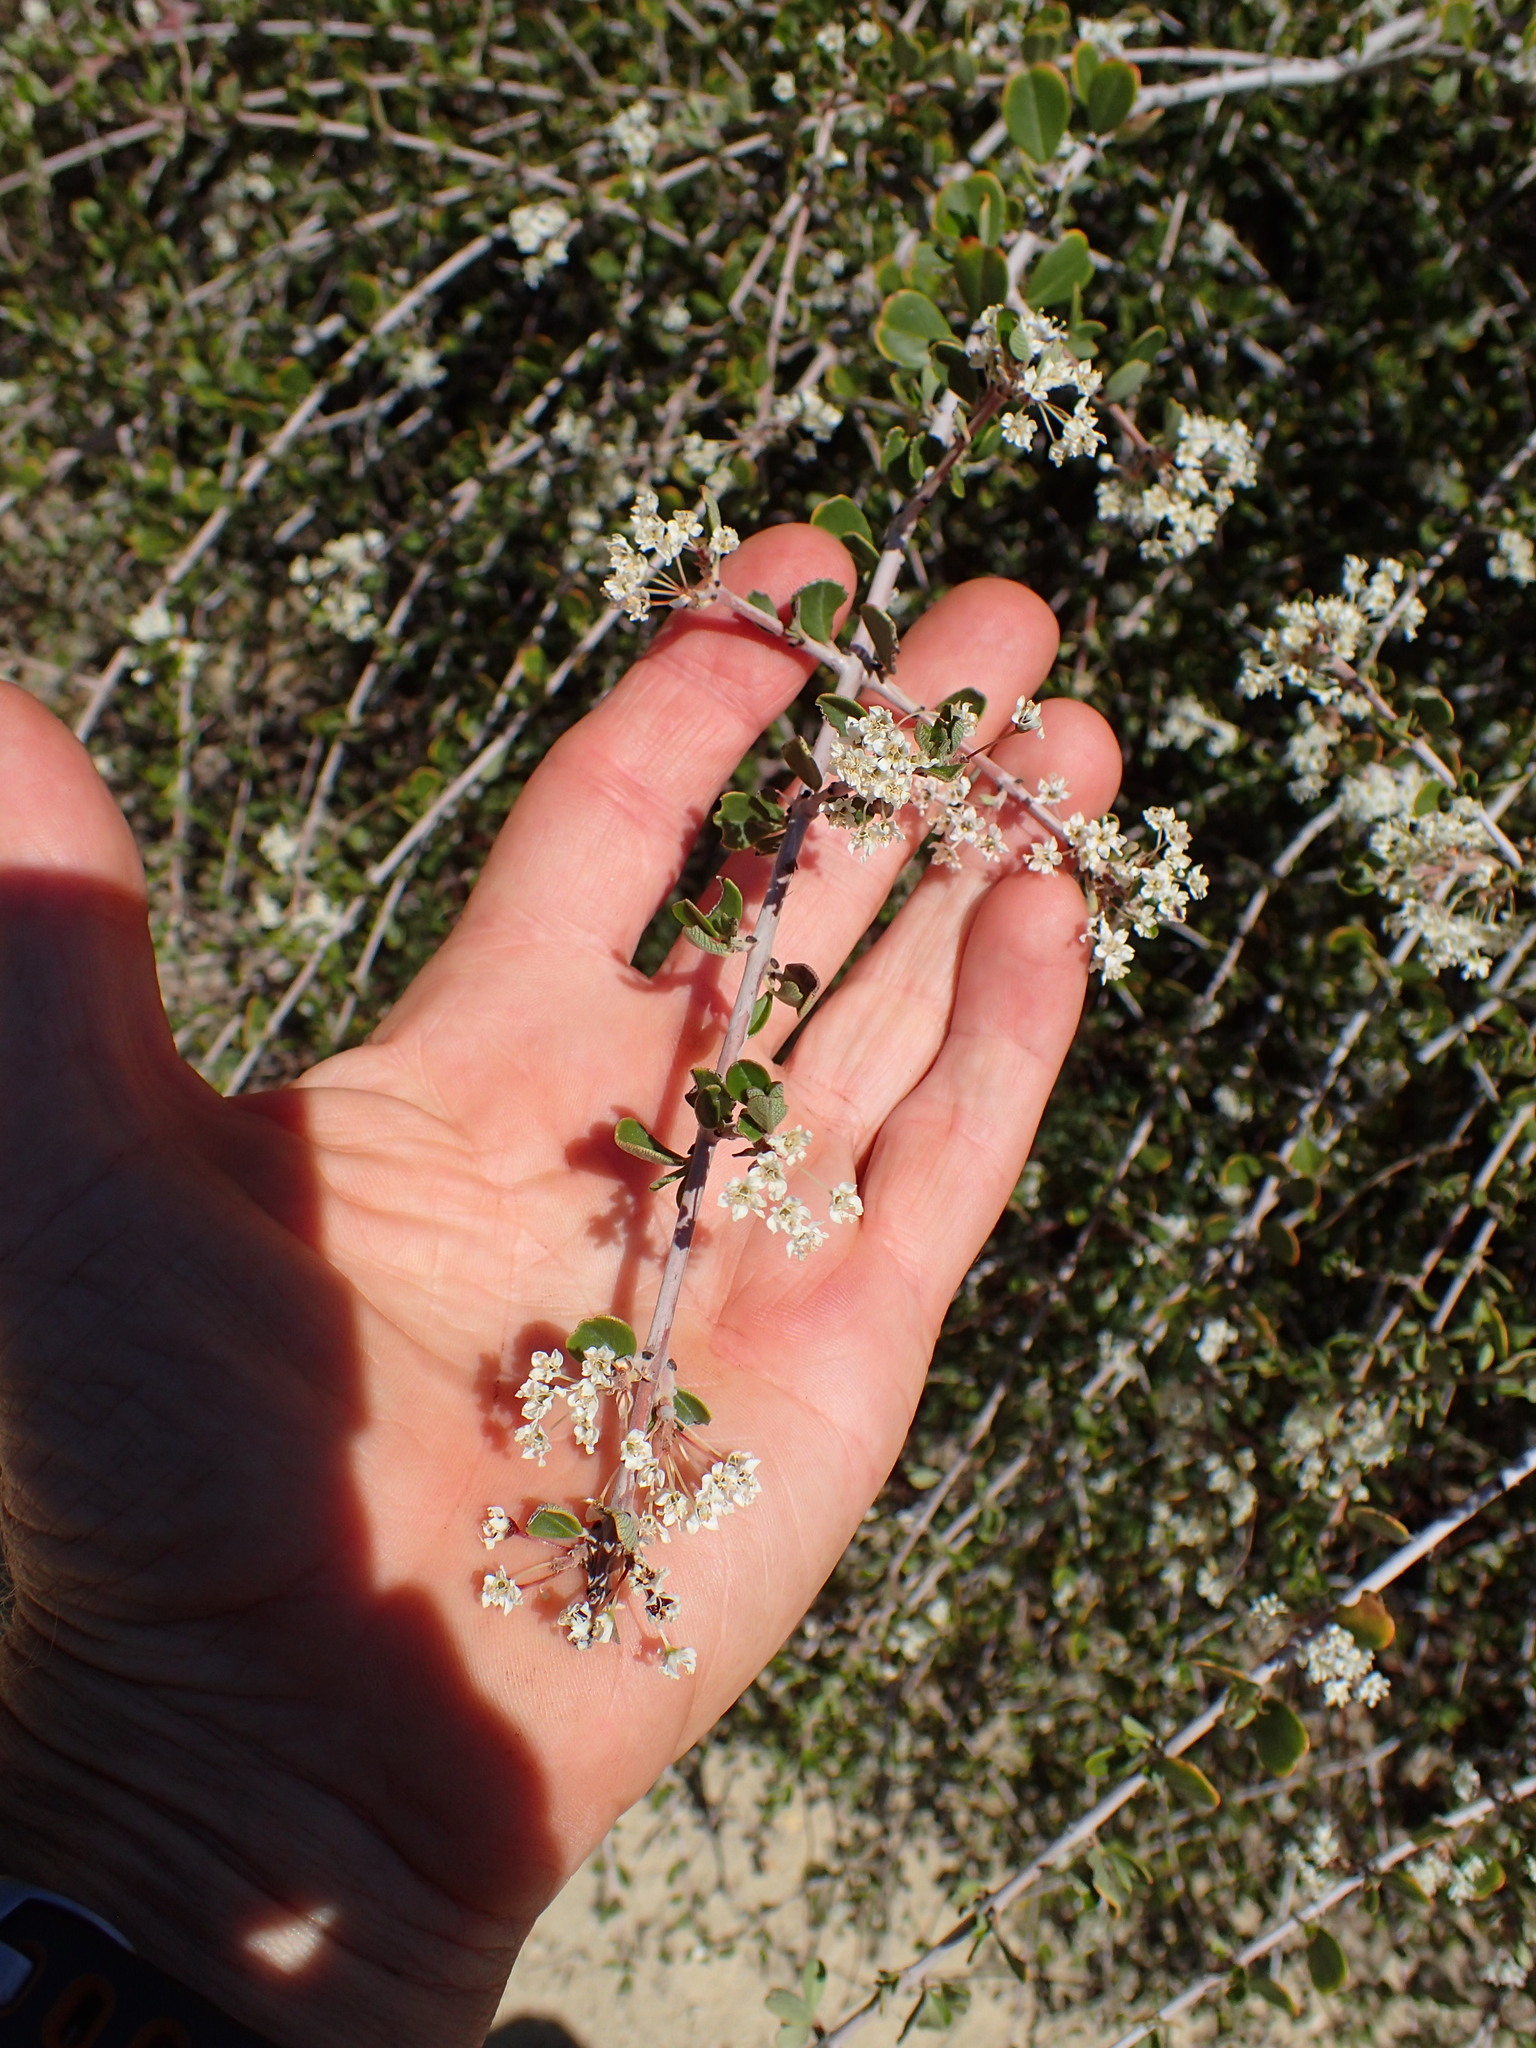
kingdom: Plantae
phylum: Tracheophyta
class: Magnoliopsida
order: Rosales
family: Rhamnaceae
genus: Ceanothus
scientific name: Ceanothus cuneatus
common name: Cuneate ceanothus
